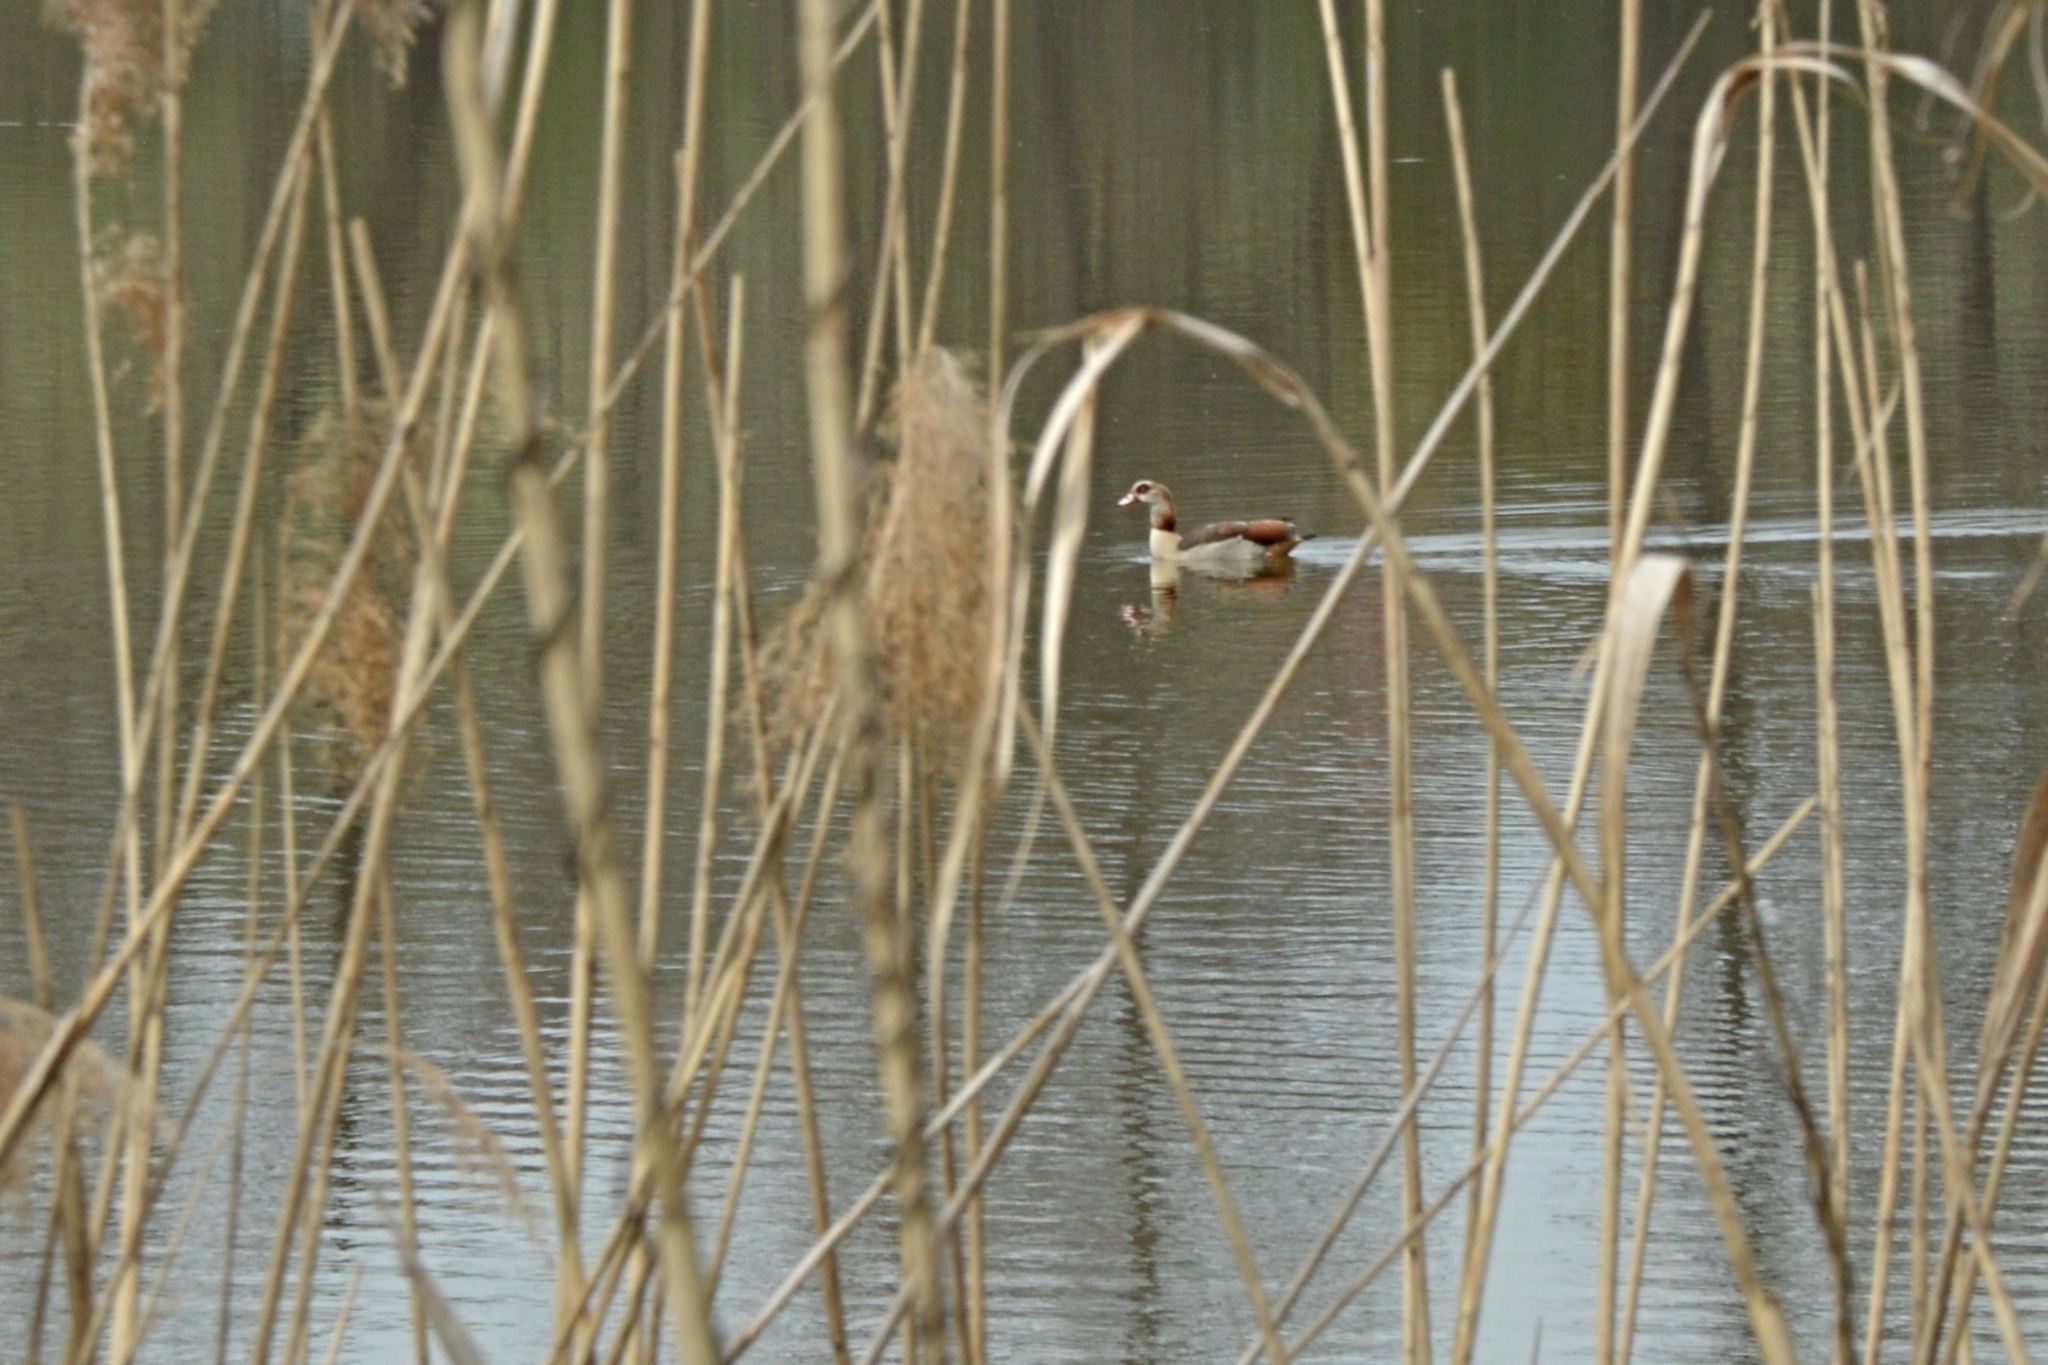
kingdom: Animalia
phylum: Chordata
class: Aves
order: Anseriformes
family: Anatidae
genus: Alopochen
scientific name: Alopochen aegyptiaca
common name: Egyptian goose
